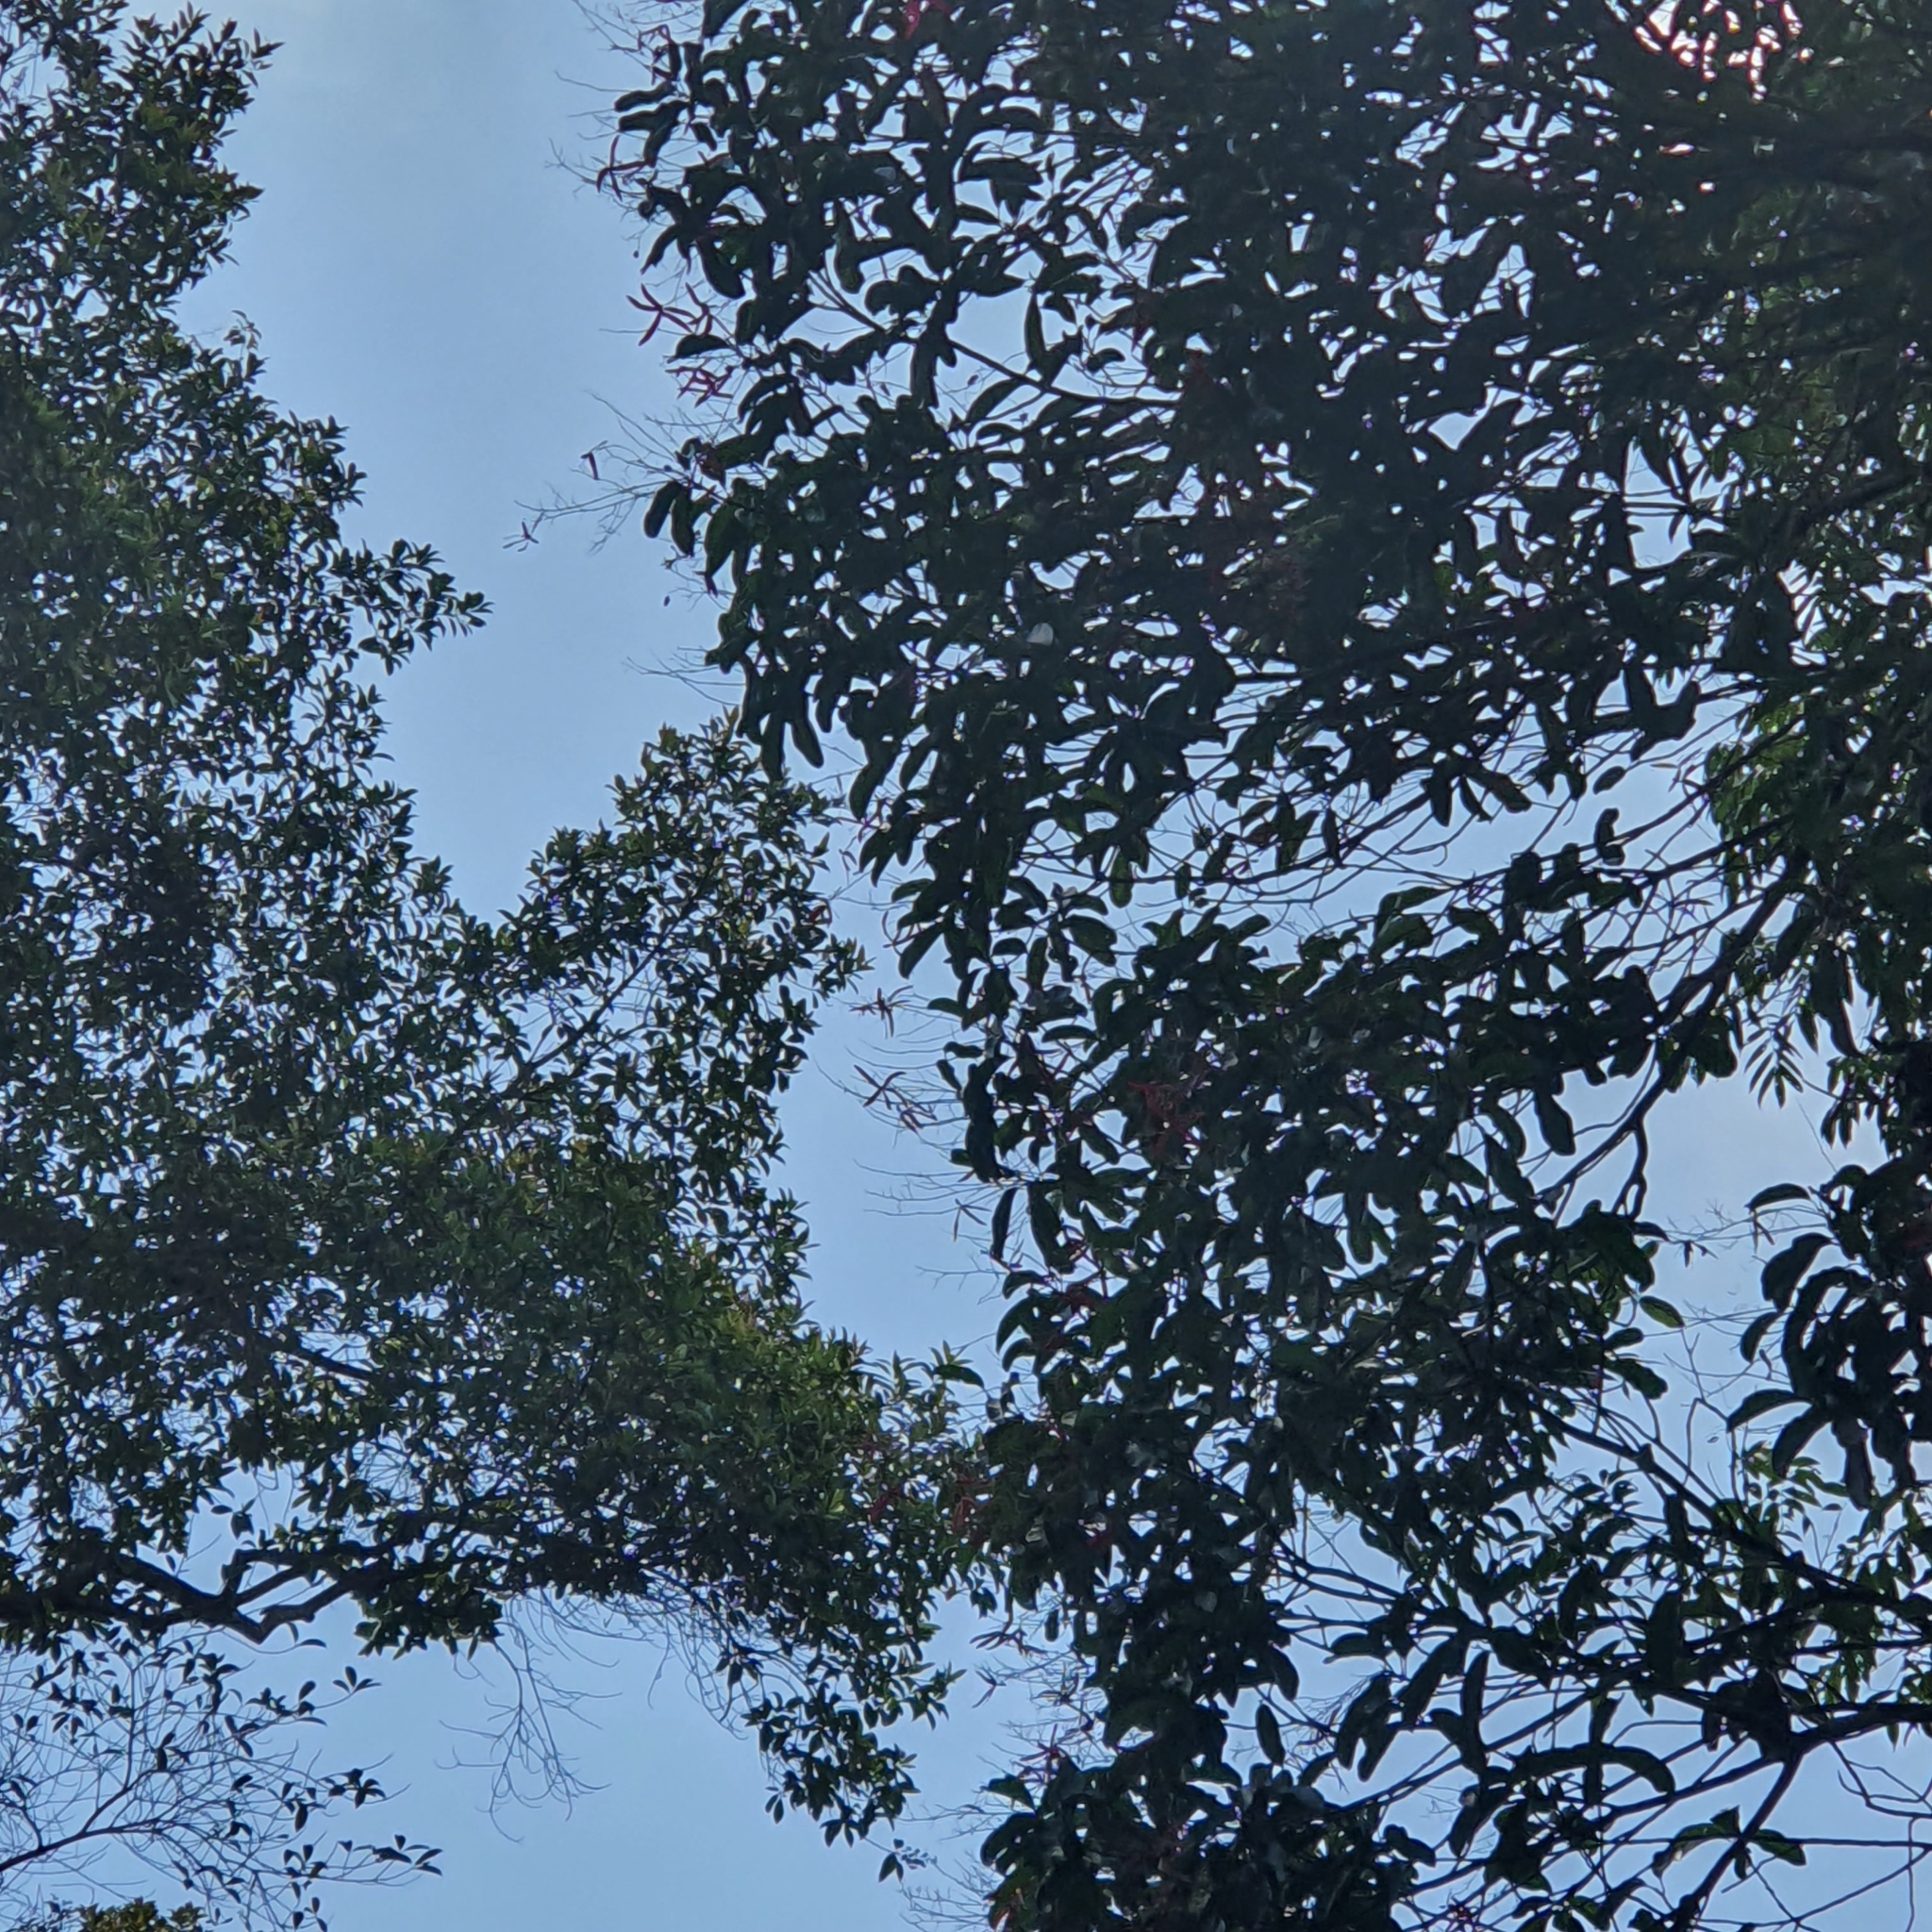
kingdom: Plantae
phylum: Tracheophyta
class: Magnoliopsida
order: Sapindales
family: Anacardiaceae
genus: Gluta
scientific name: Gluta wallichii
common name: Common rengas
